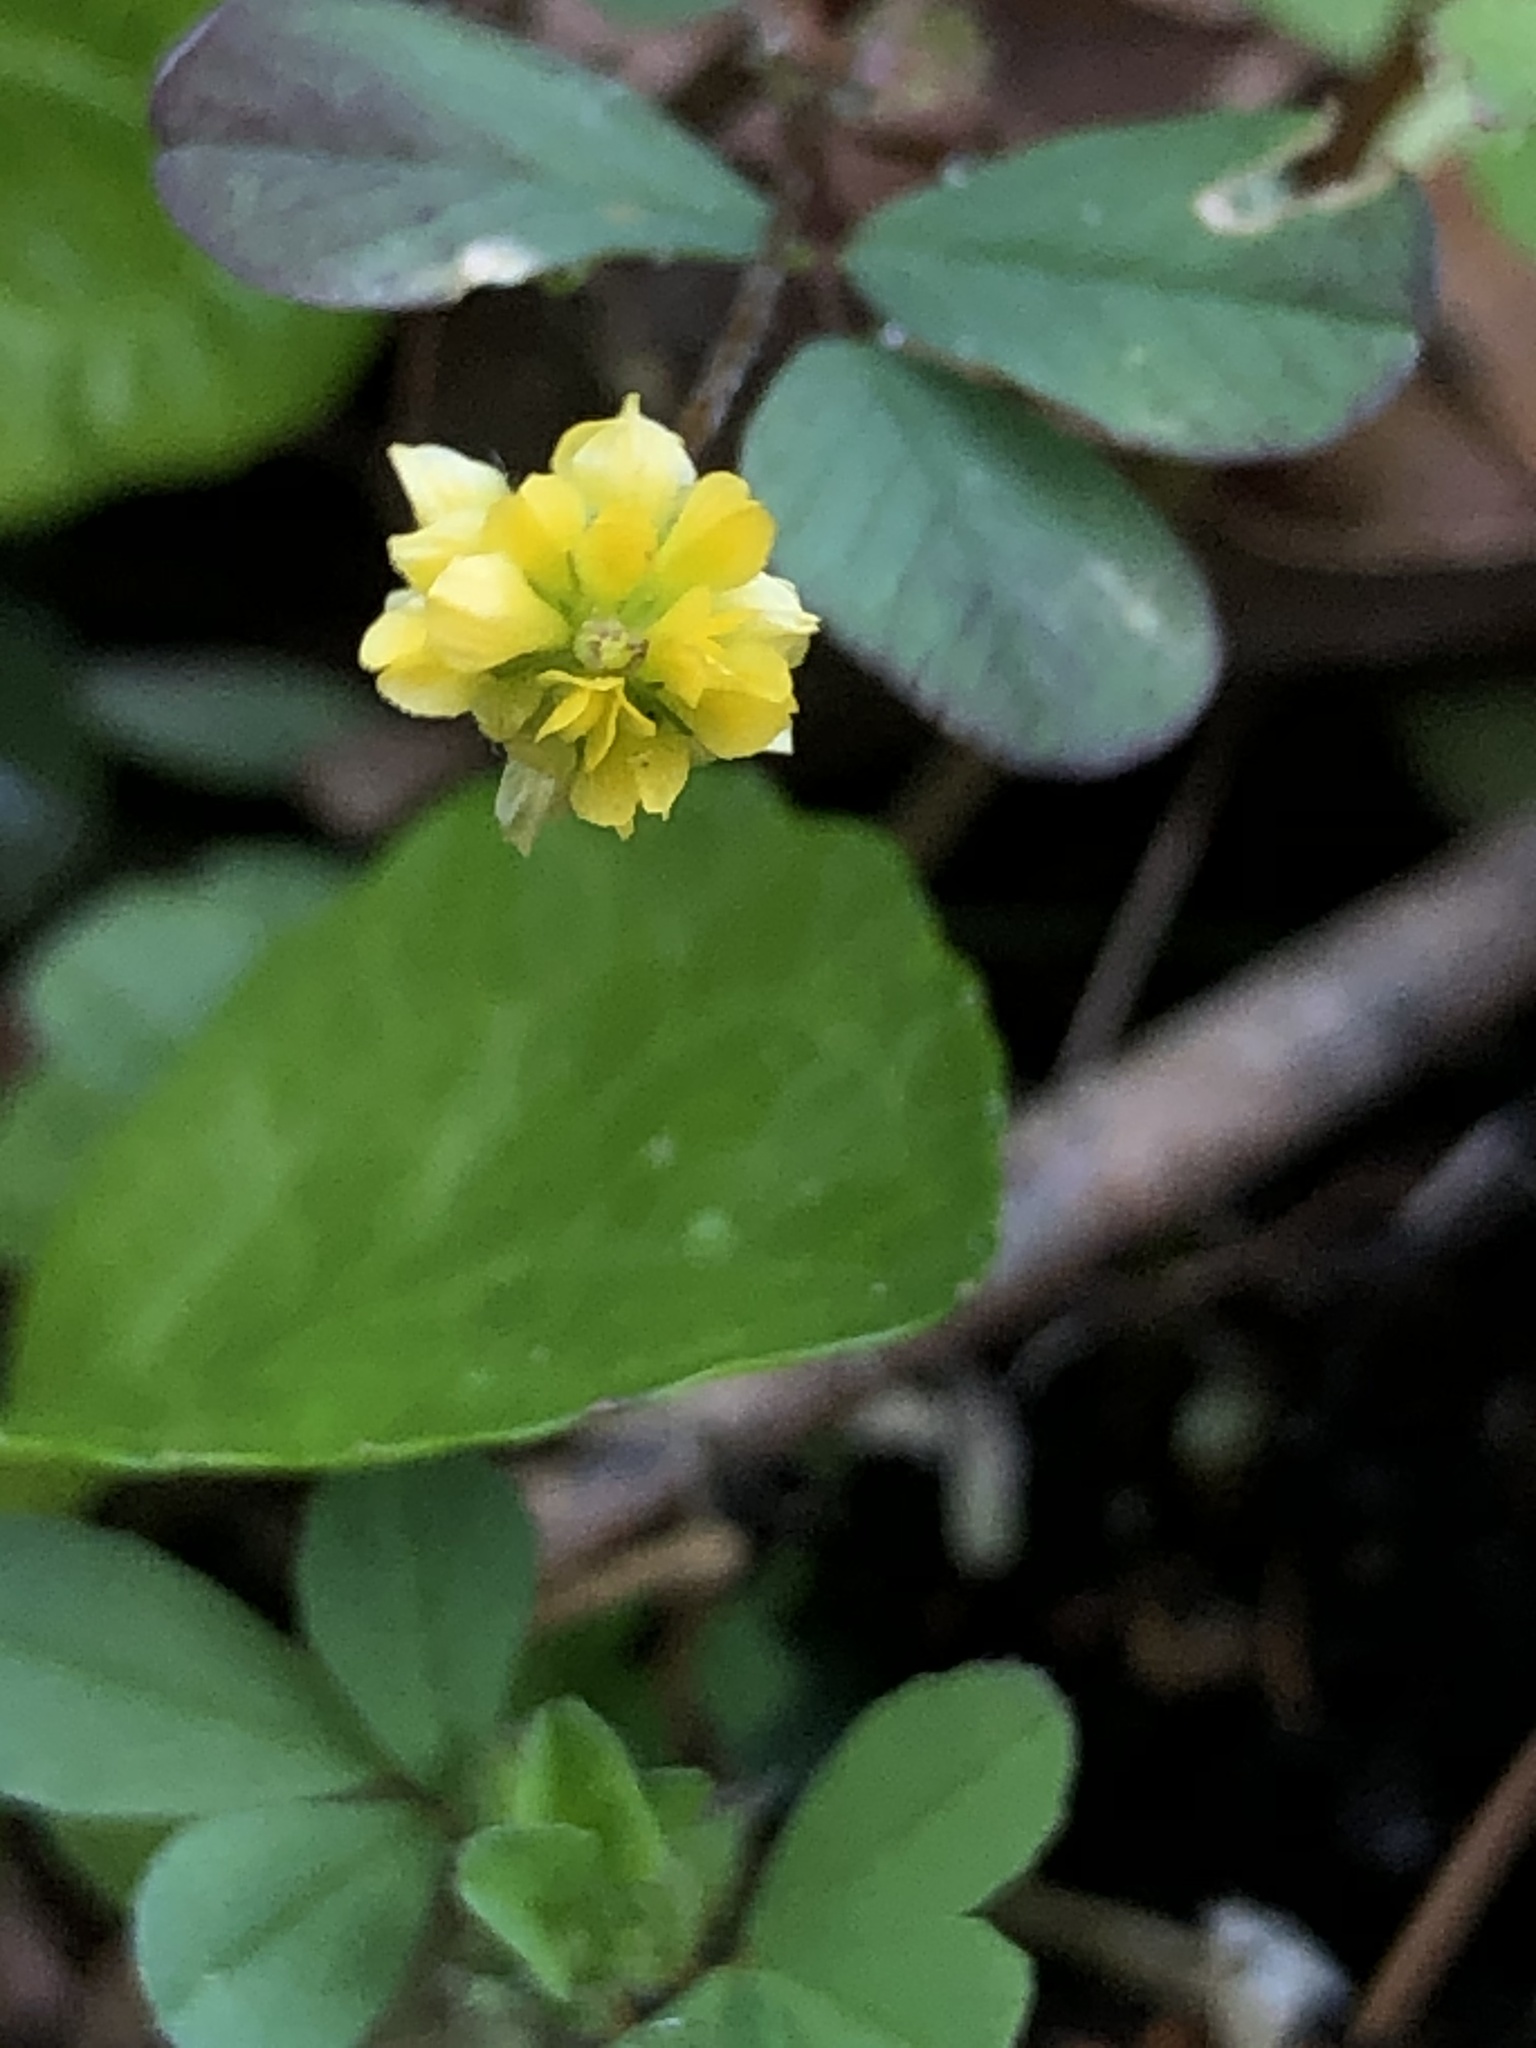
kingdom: Plantae
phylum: Tracheophyta
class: Magnoliopsida
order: Fabales
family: Fabaceae
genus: Trifolium
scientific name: Trifolium dubium
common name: Suckling clover
